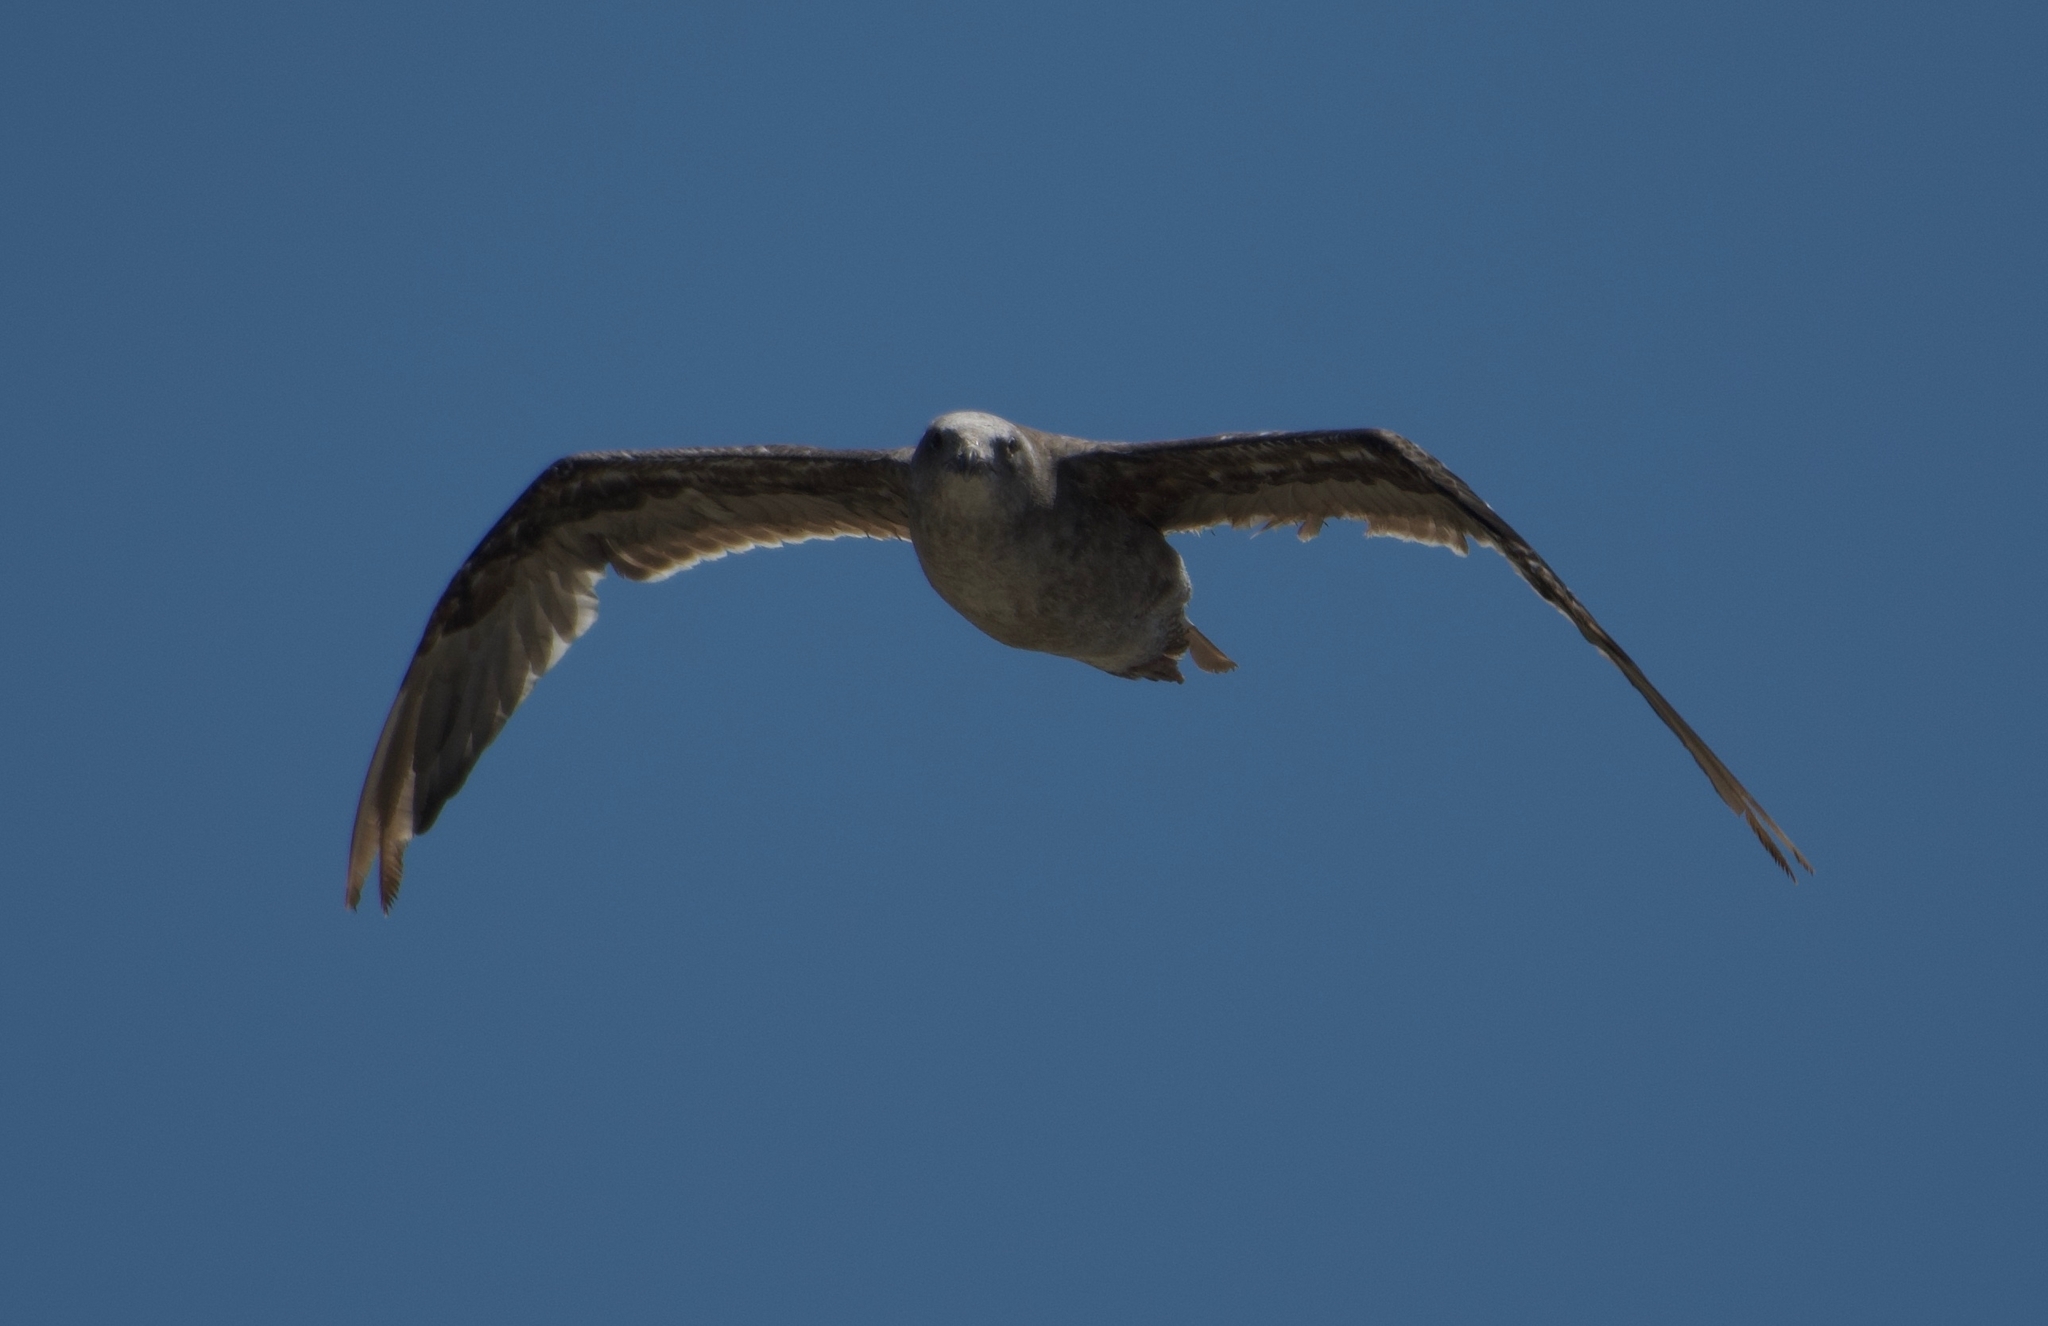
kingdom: Animalia
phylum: Chordata
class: Aves
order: Charadriiformes
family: Laridae
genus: Larus
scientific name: Larus occidentalis
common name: Western gull
